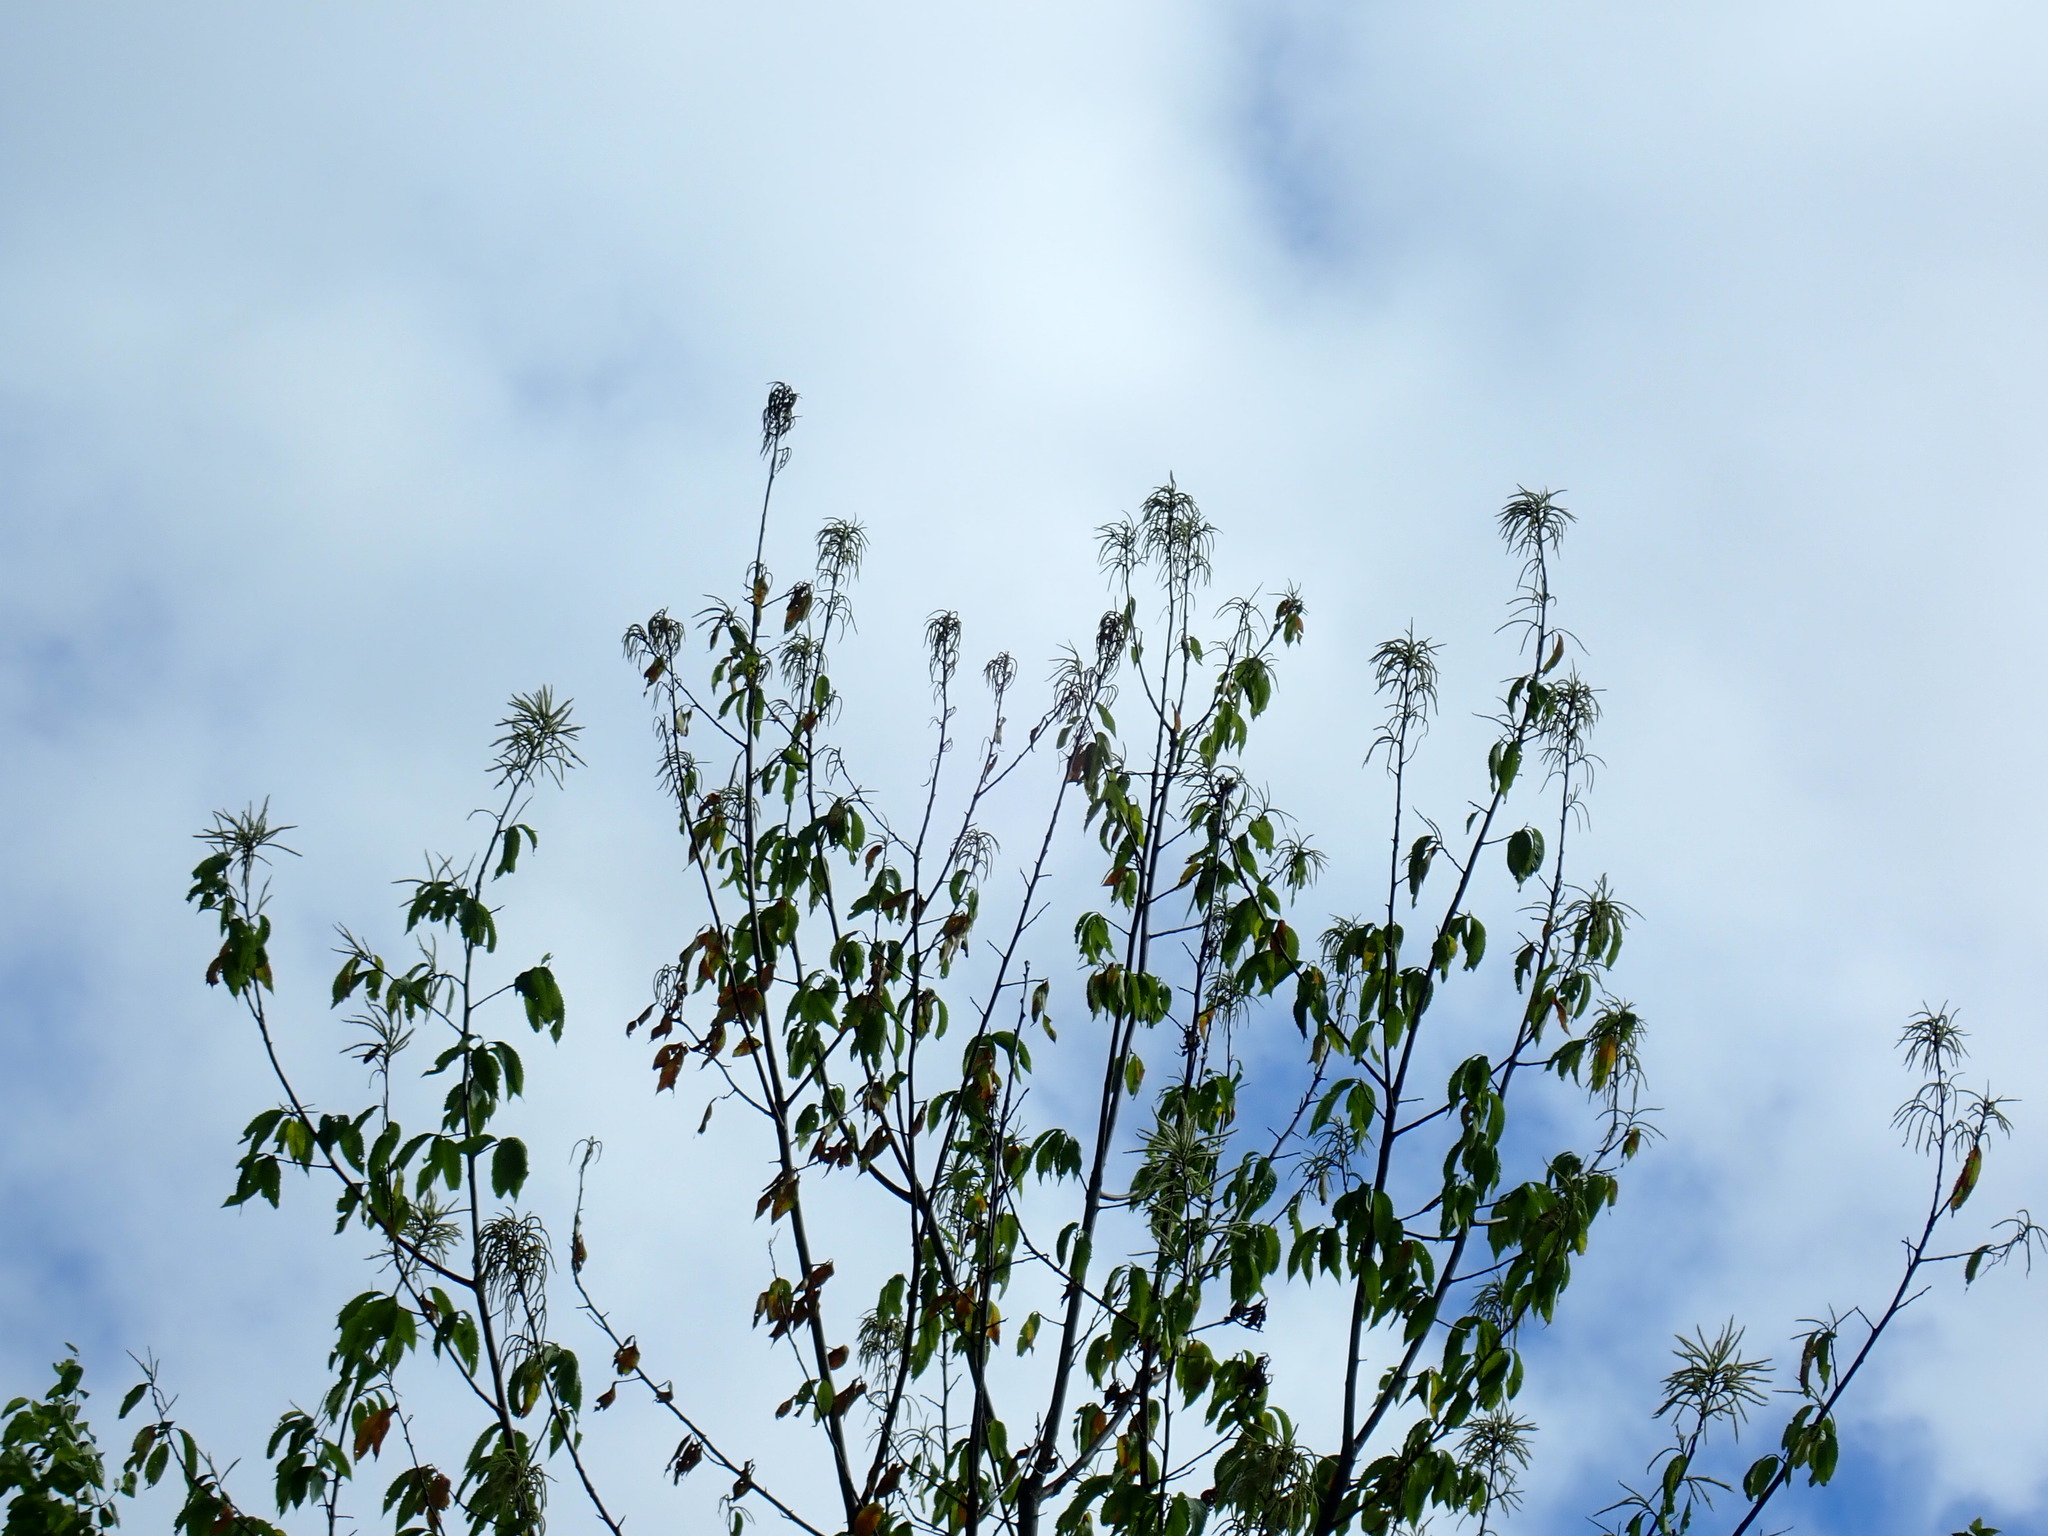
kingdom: Plantae
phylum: Tracheophyta
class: Magnoliopsida
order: Fagales
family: Fagaceae
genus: Castanea
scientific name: Castanea dentata
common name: American chestnut
